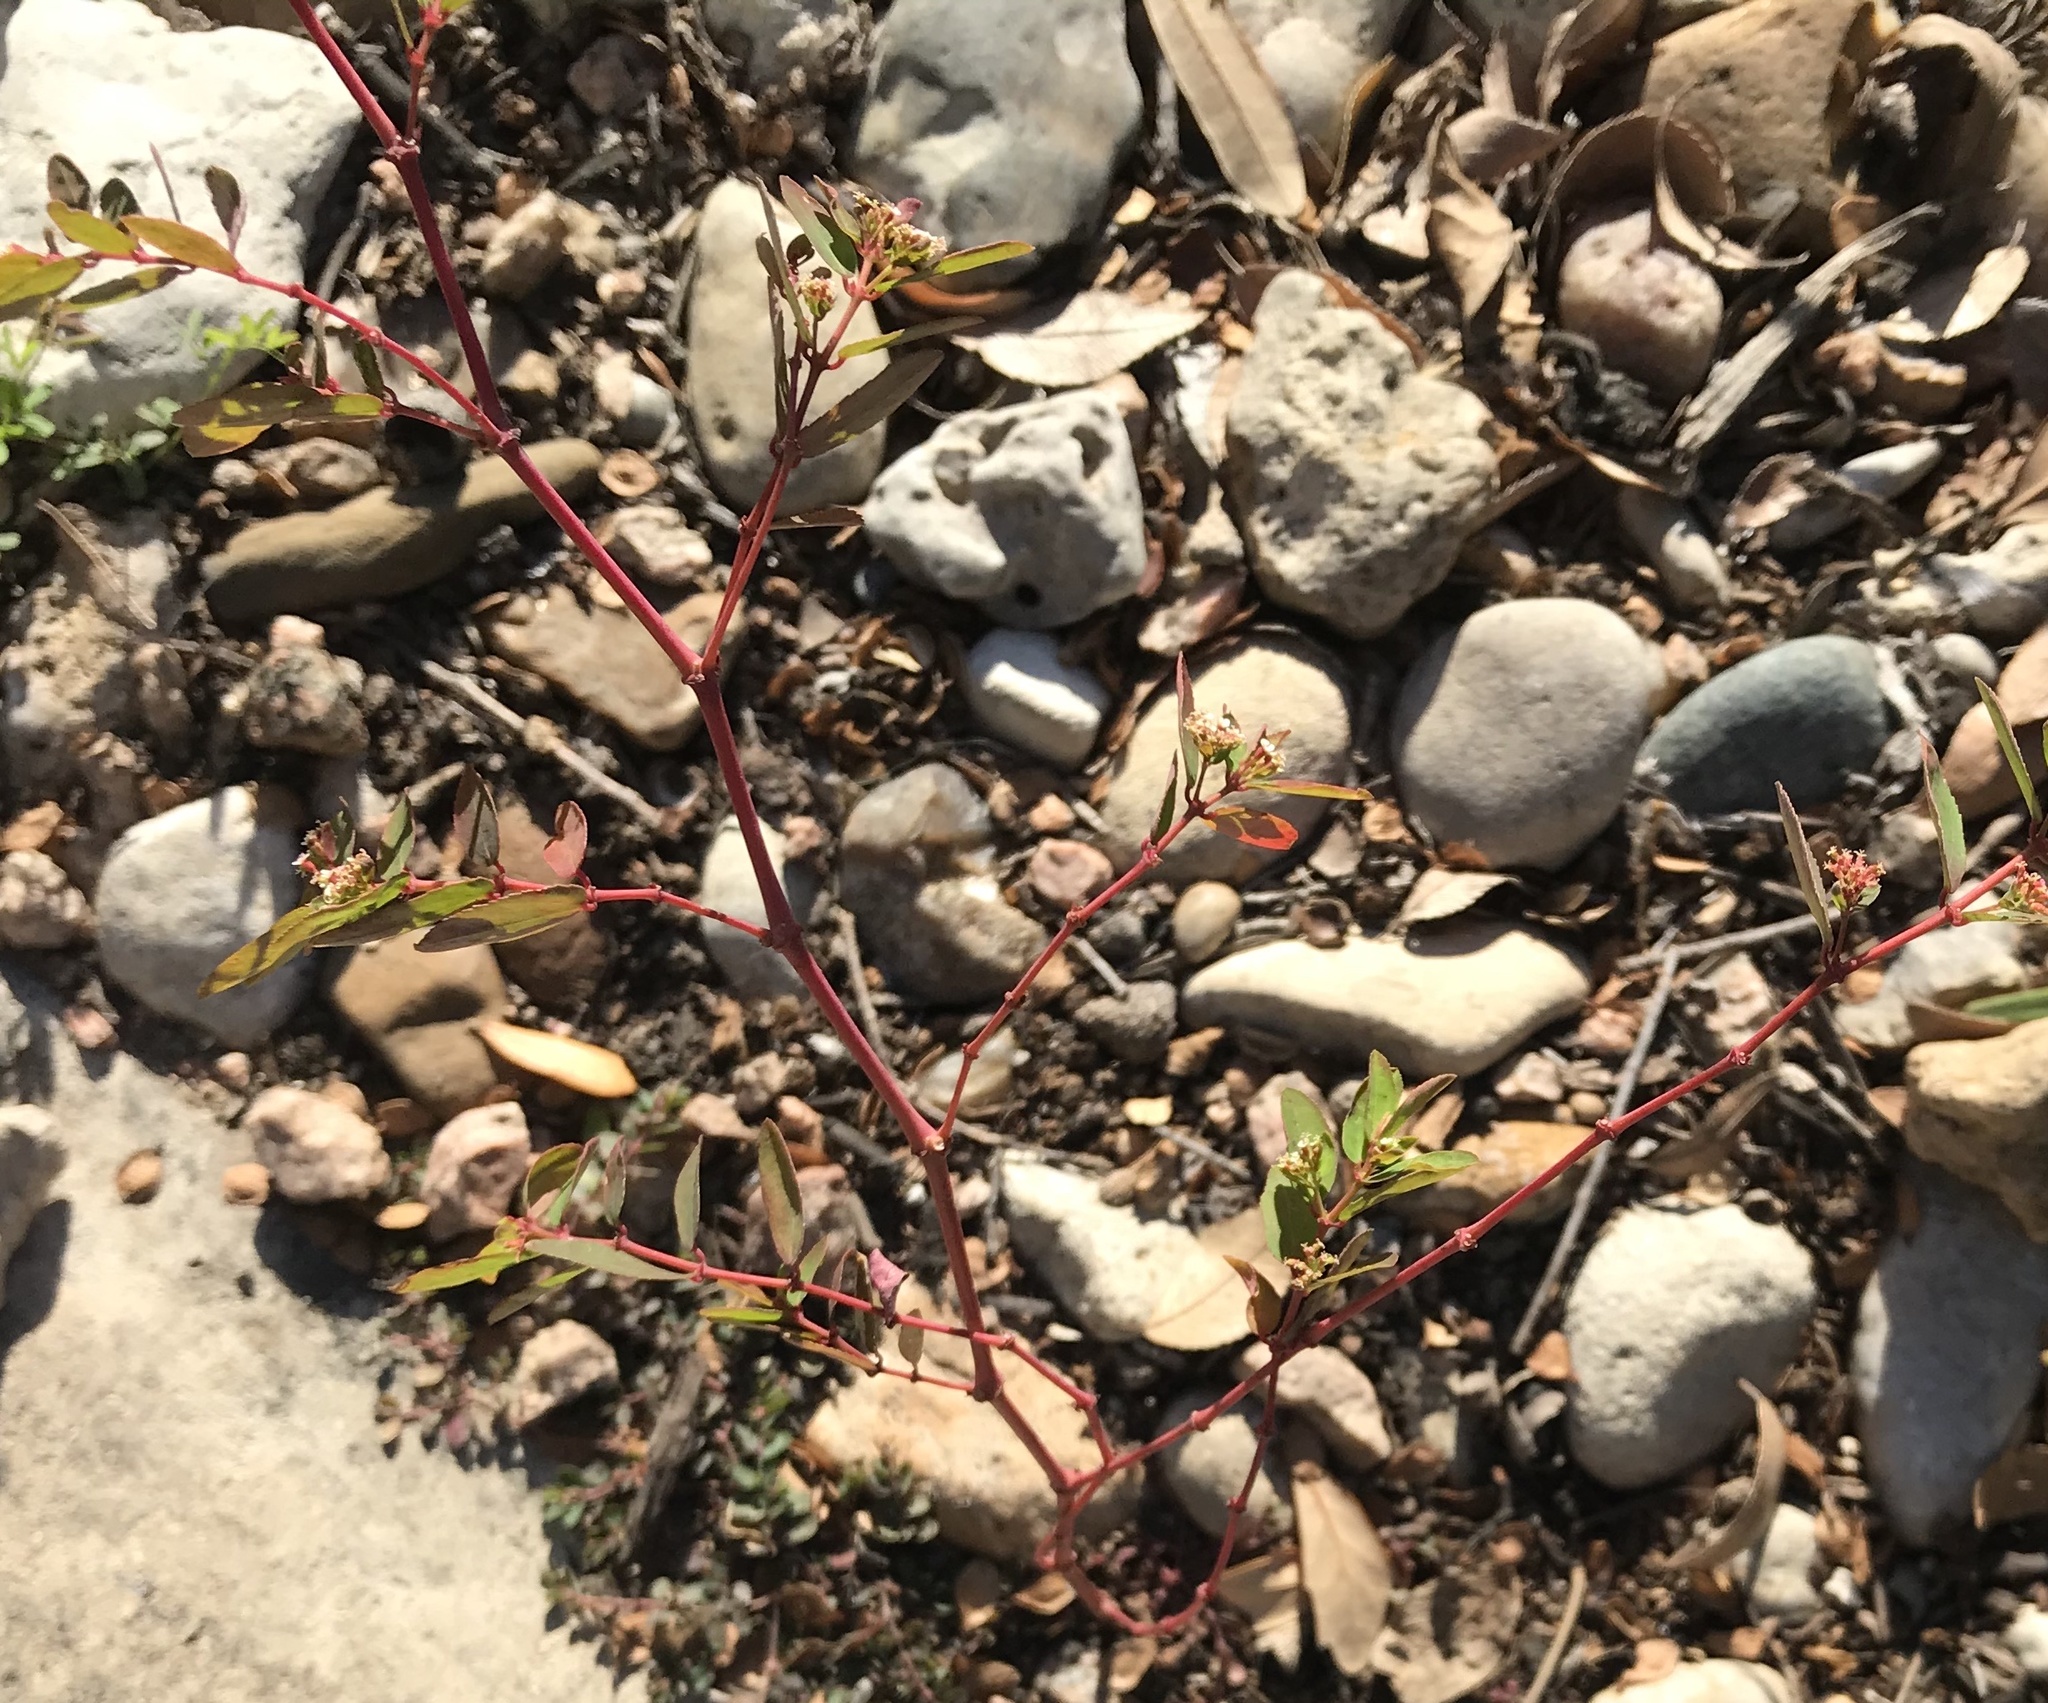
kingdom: Plantae
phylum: Tracheophyta
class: Magnoliopsida
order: Malpighiales
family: Euphorbiaceae
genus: Euphorbia
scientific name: Euphorbia hypericifolia
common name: Graceful sandmat
